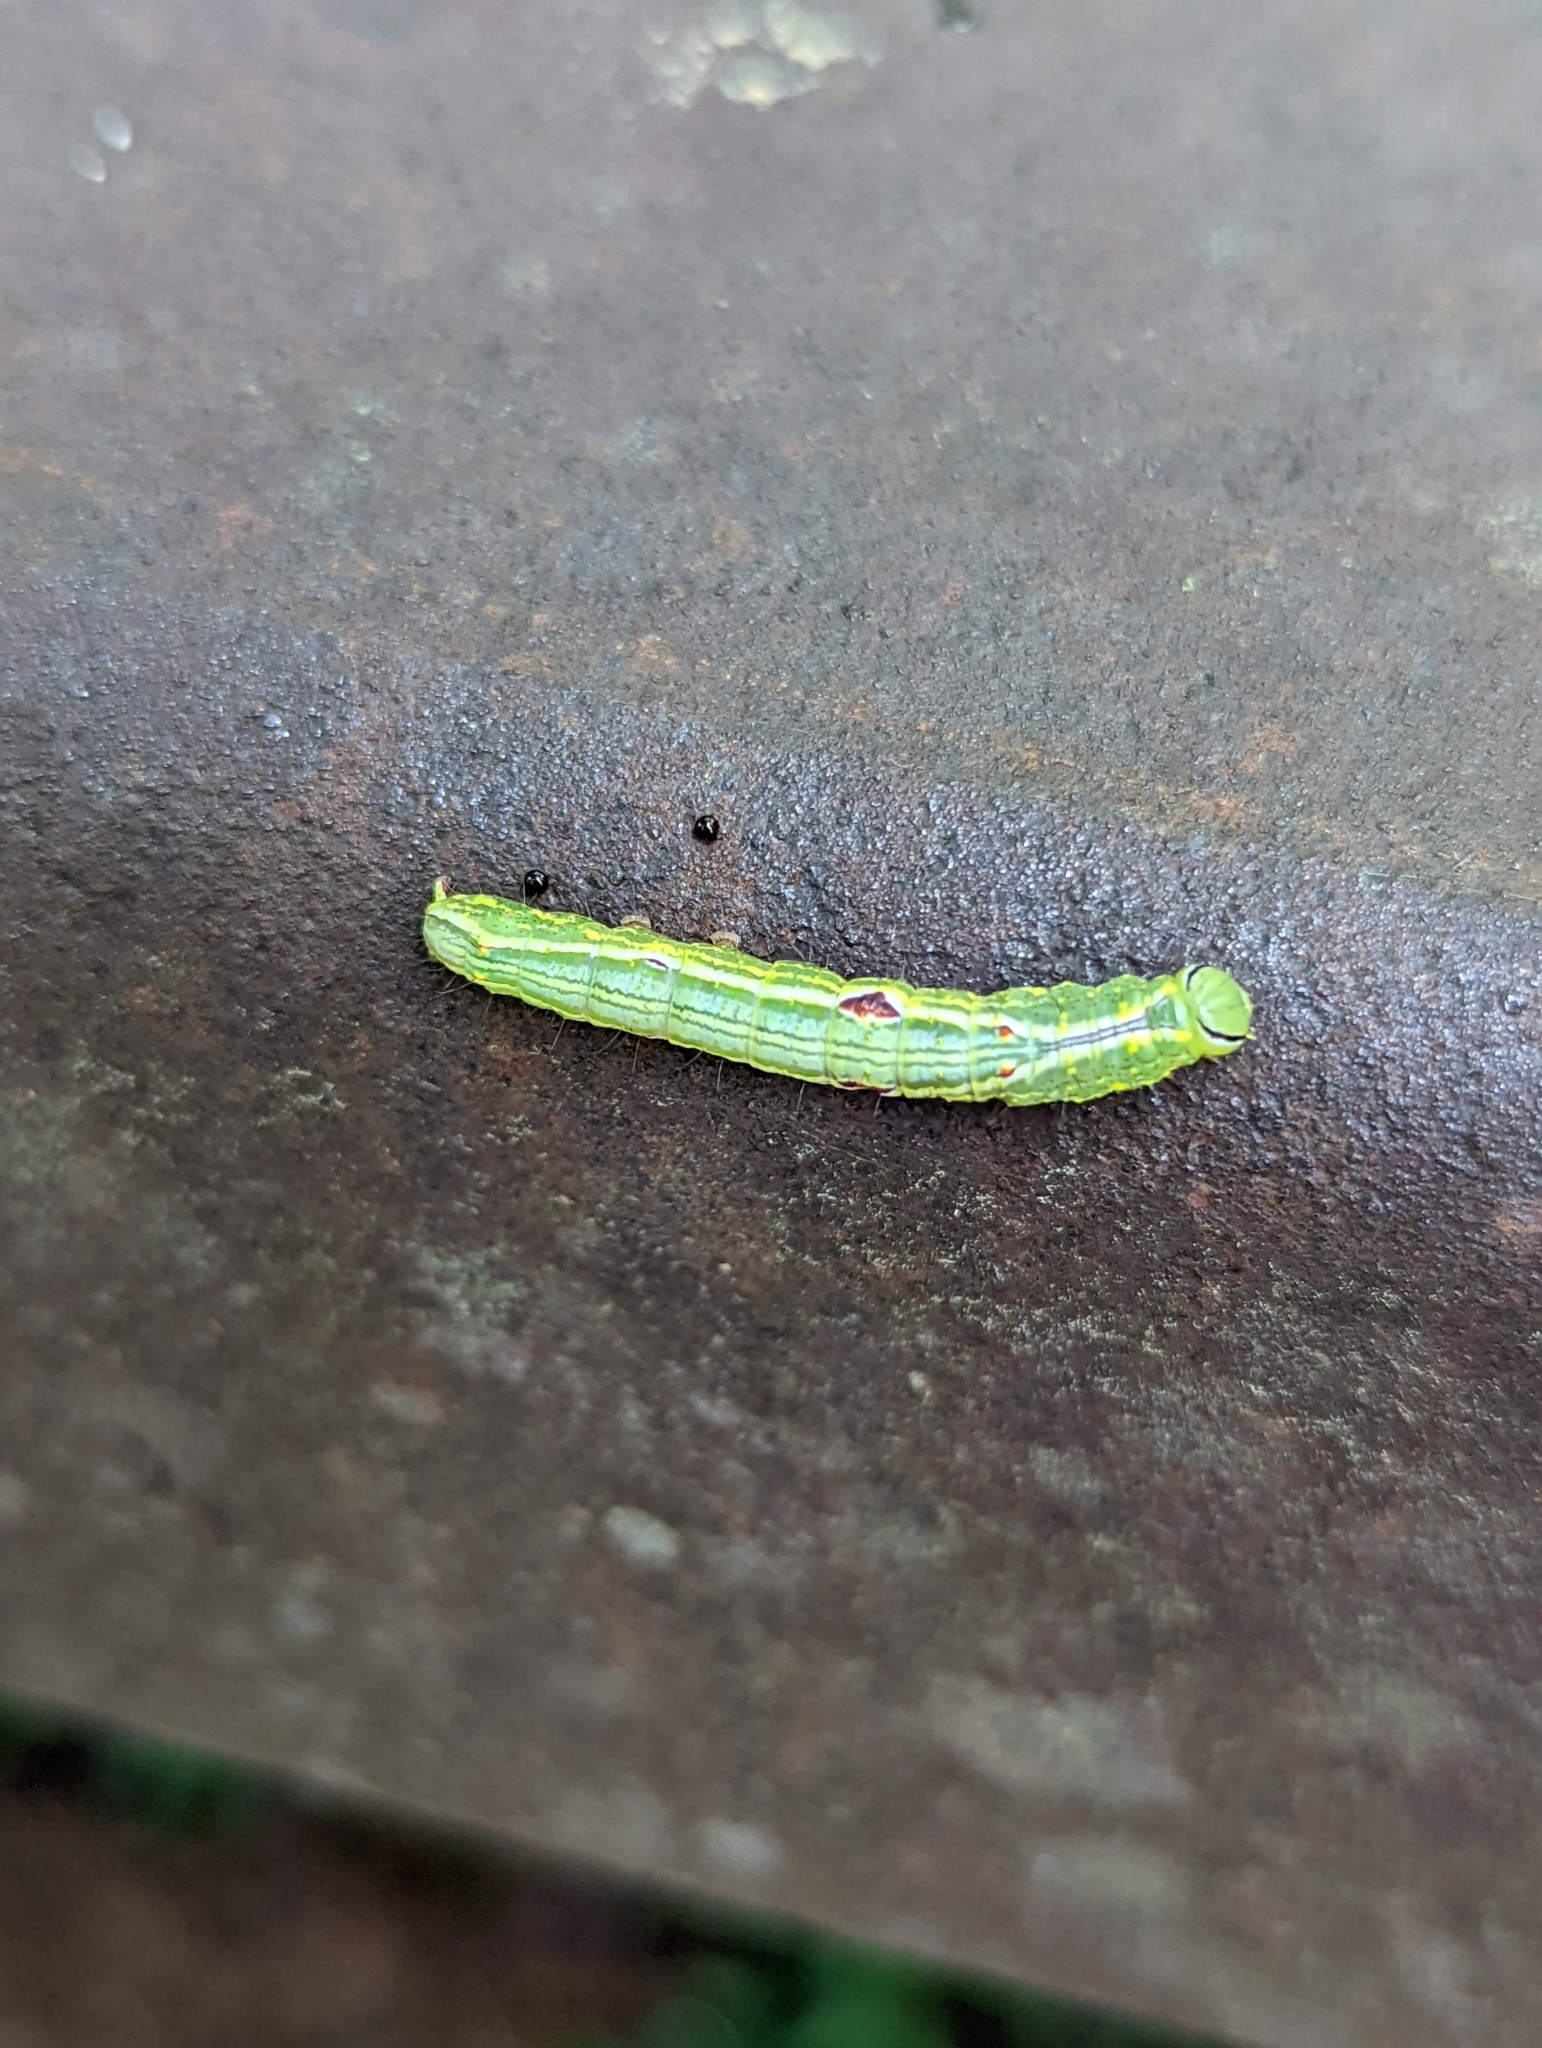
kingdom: Animalia
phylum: Arthropoda
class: Insecta
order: Lepidoptera
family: Notodontidae
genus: Lochmaeus
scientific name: Lochmaeus bilineata
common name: Double-lined prominent
